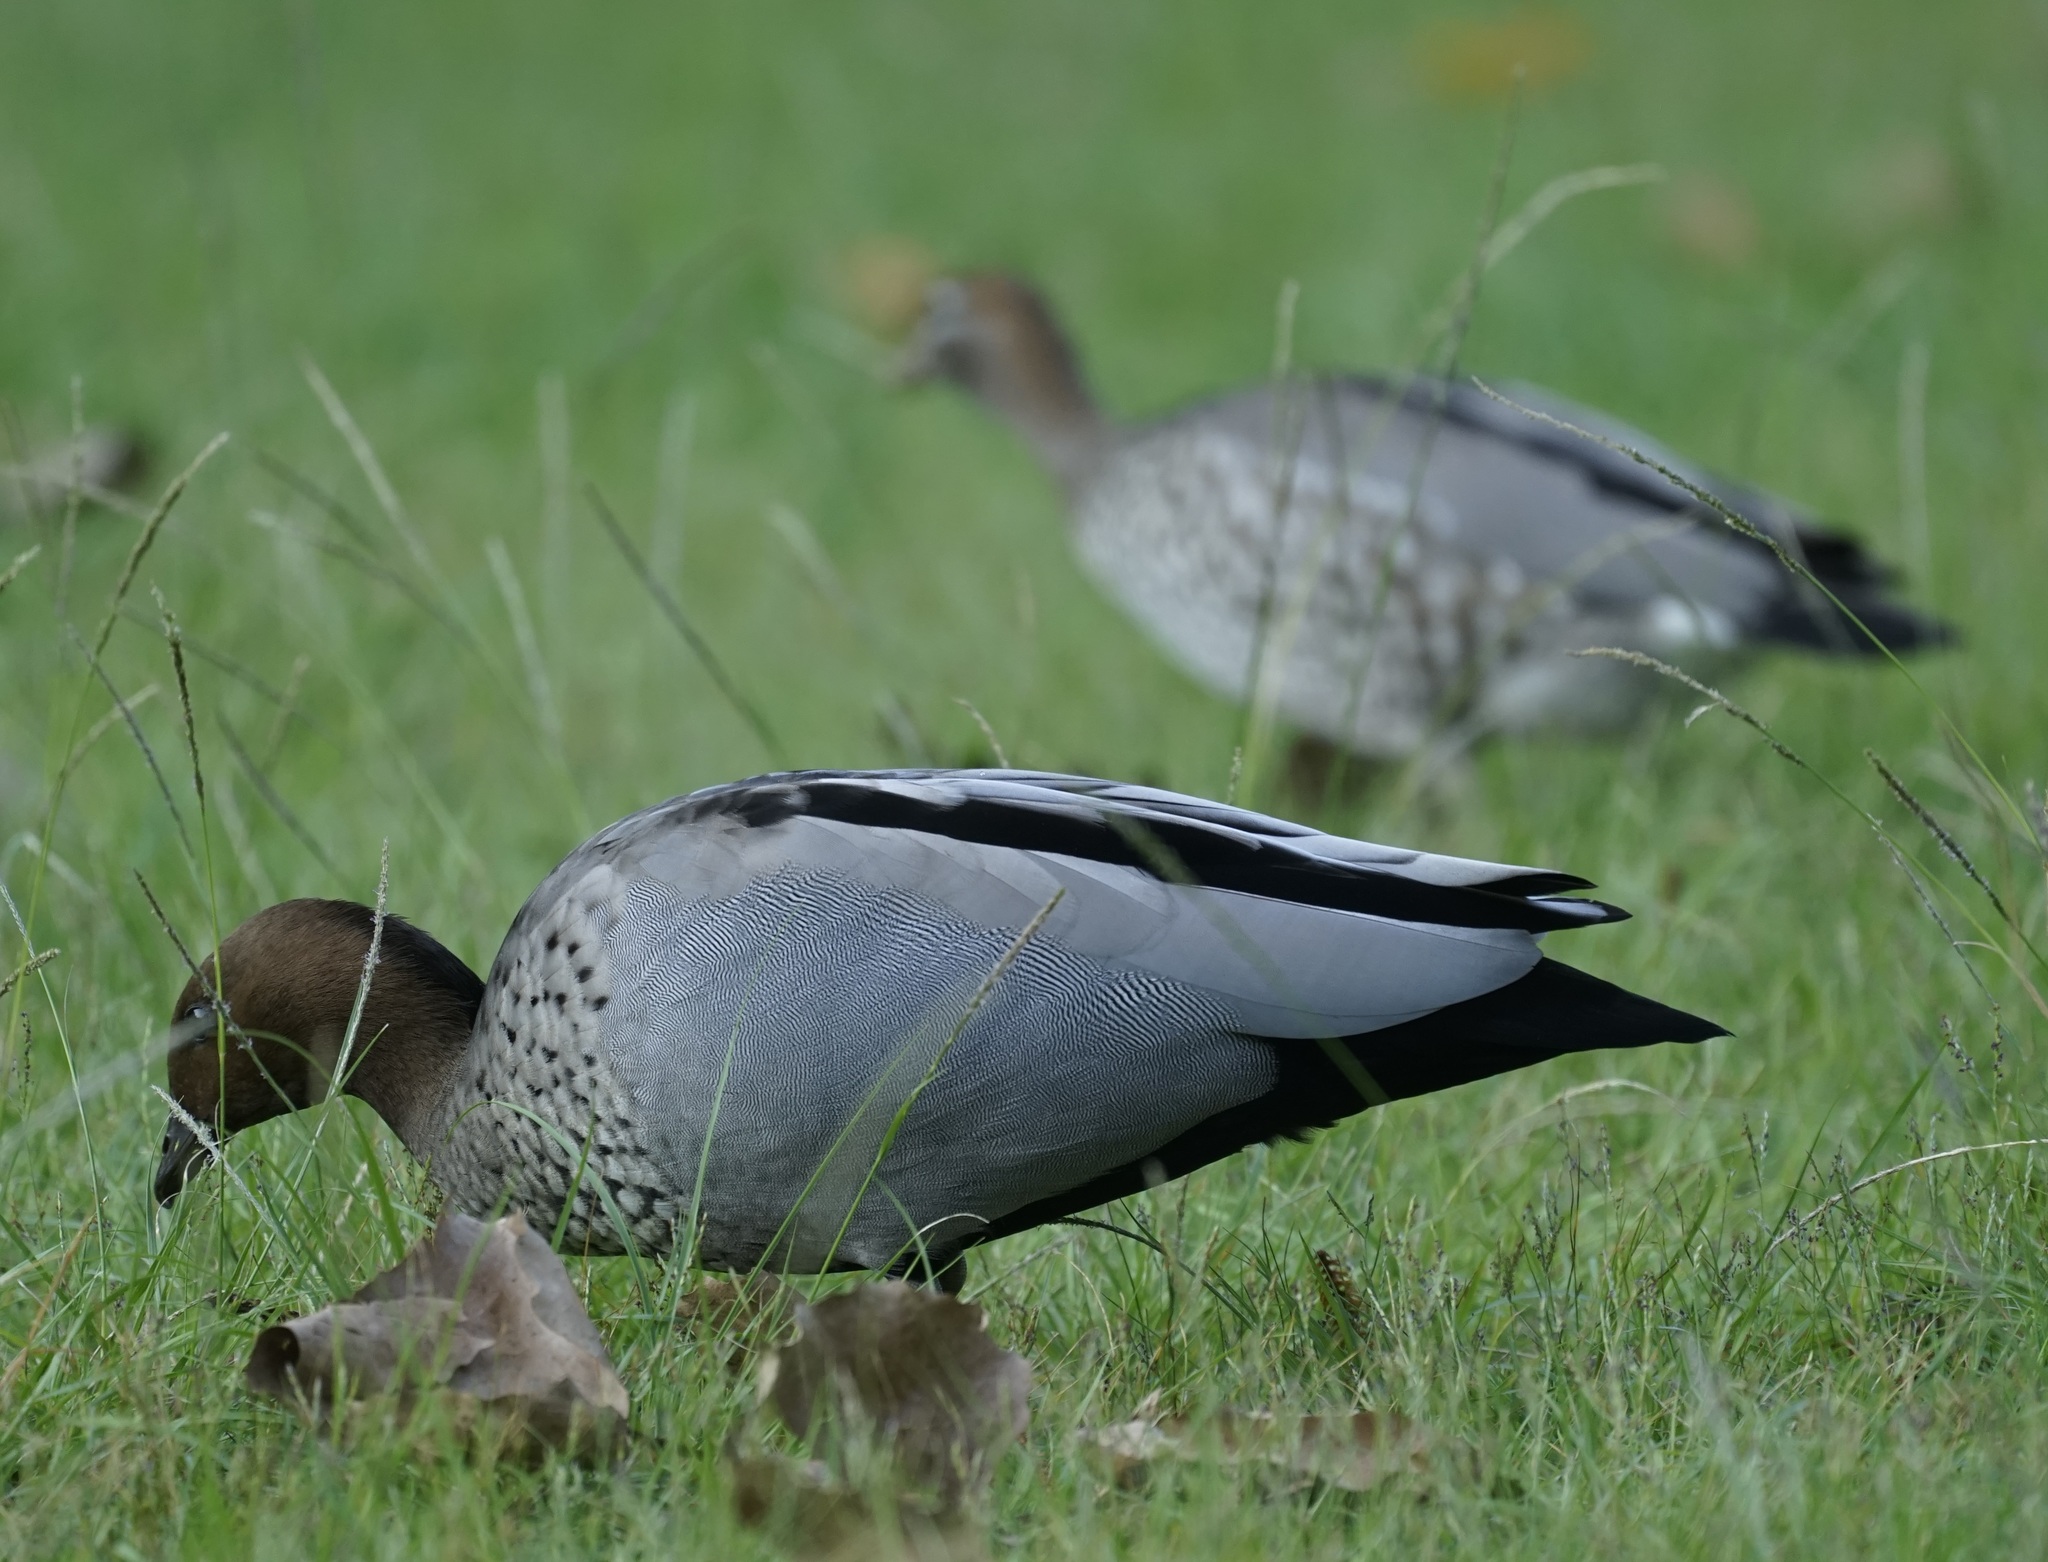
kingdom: Animalia
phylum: Chordata
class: Aves
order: Anseriformes
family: Anatidae
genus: Chenonetta
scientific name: Chenonetta jubata
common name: Maned duck
